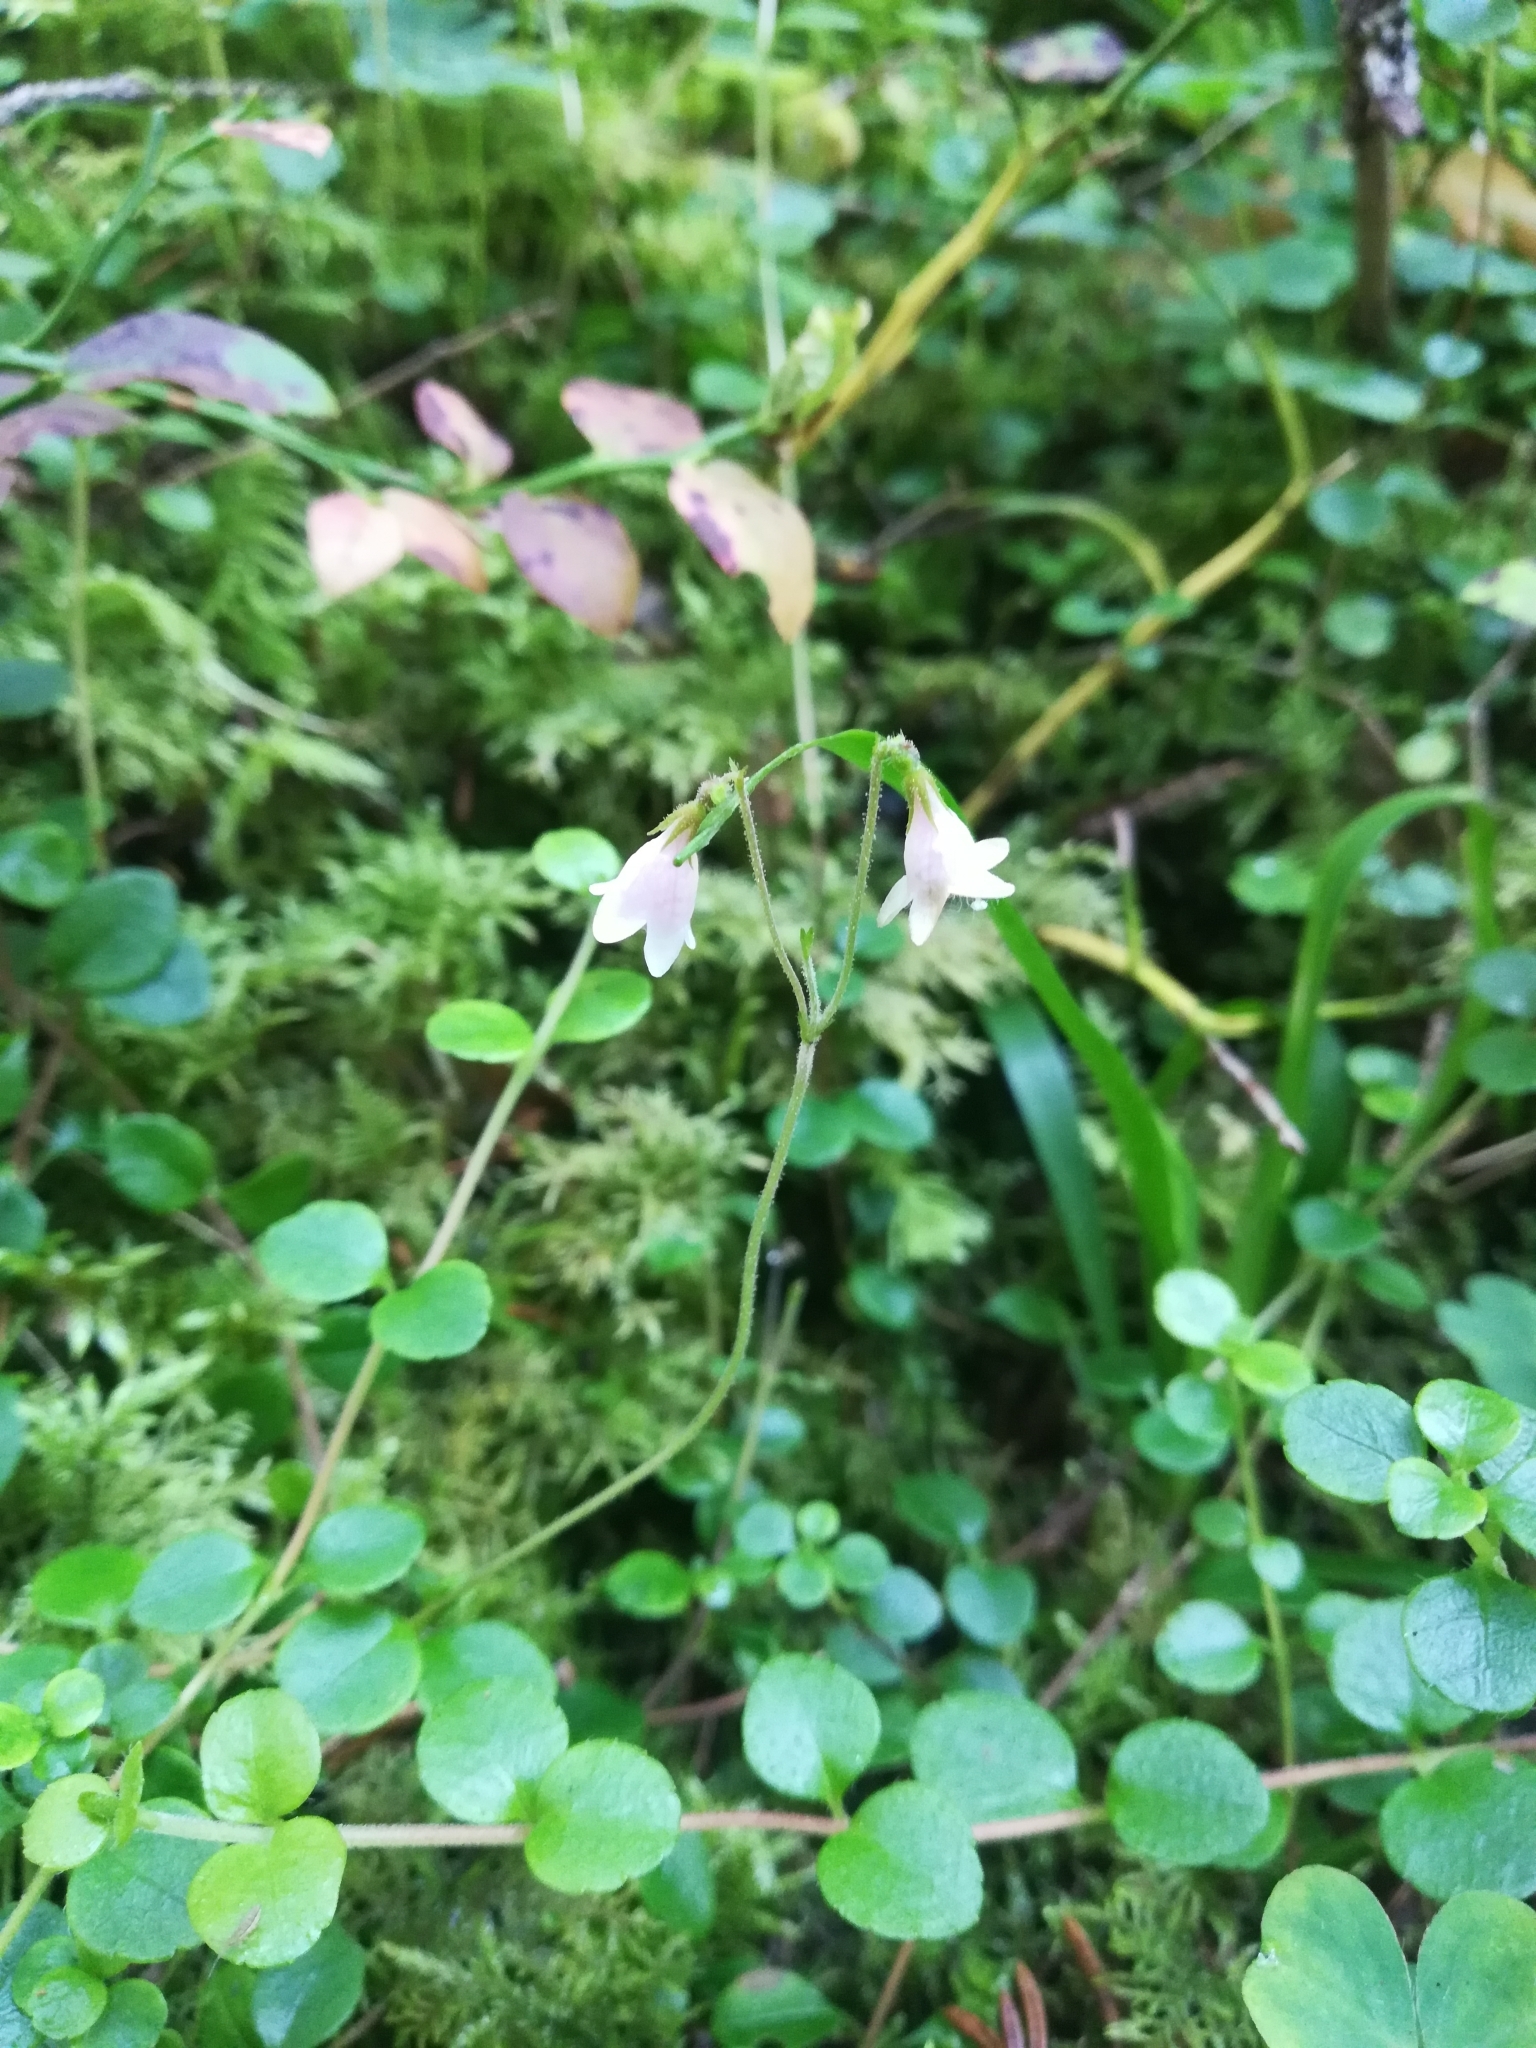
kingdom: Plantae
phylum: Tracheophyta
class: Magnoliopsida
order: Dipsacales
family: Caprifoliaceae
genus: Linnaea
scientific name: Linnaea borealis
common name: Twinflower
